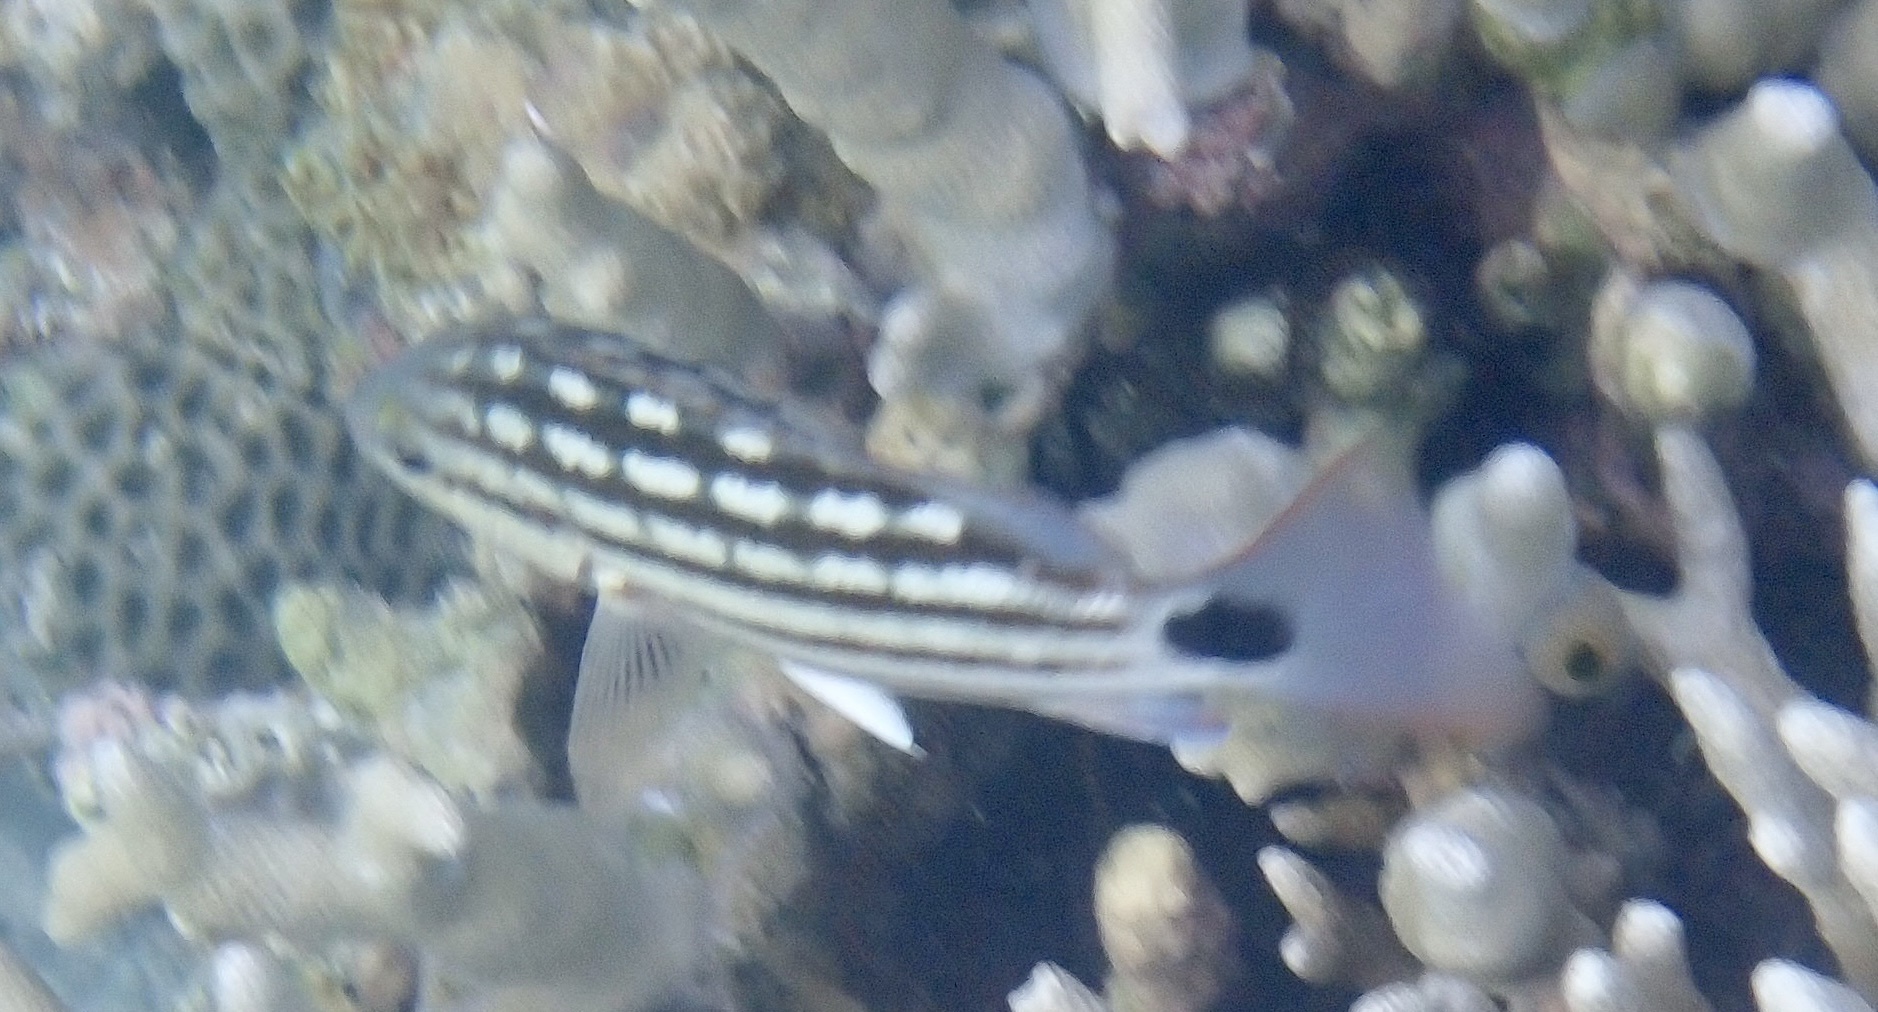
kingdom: Animalia
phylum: Chordata
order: Perciformes
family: Lutjanidae
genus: Lutjanus
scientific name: Lutjanus decussatus
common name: Checkered snapper
